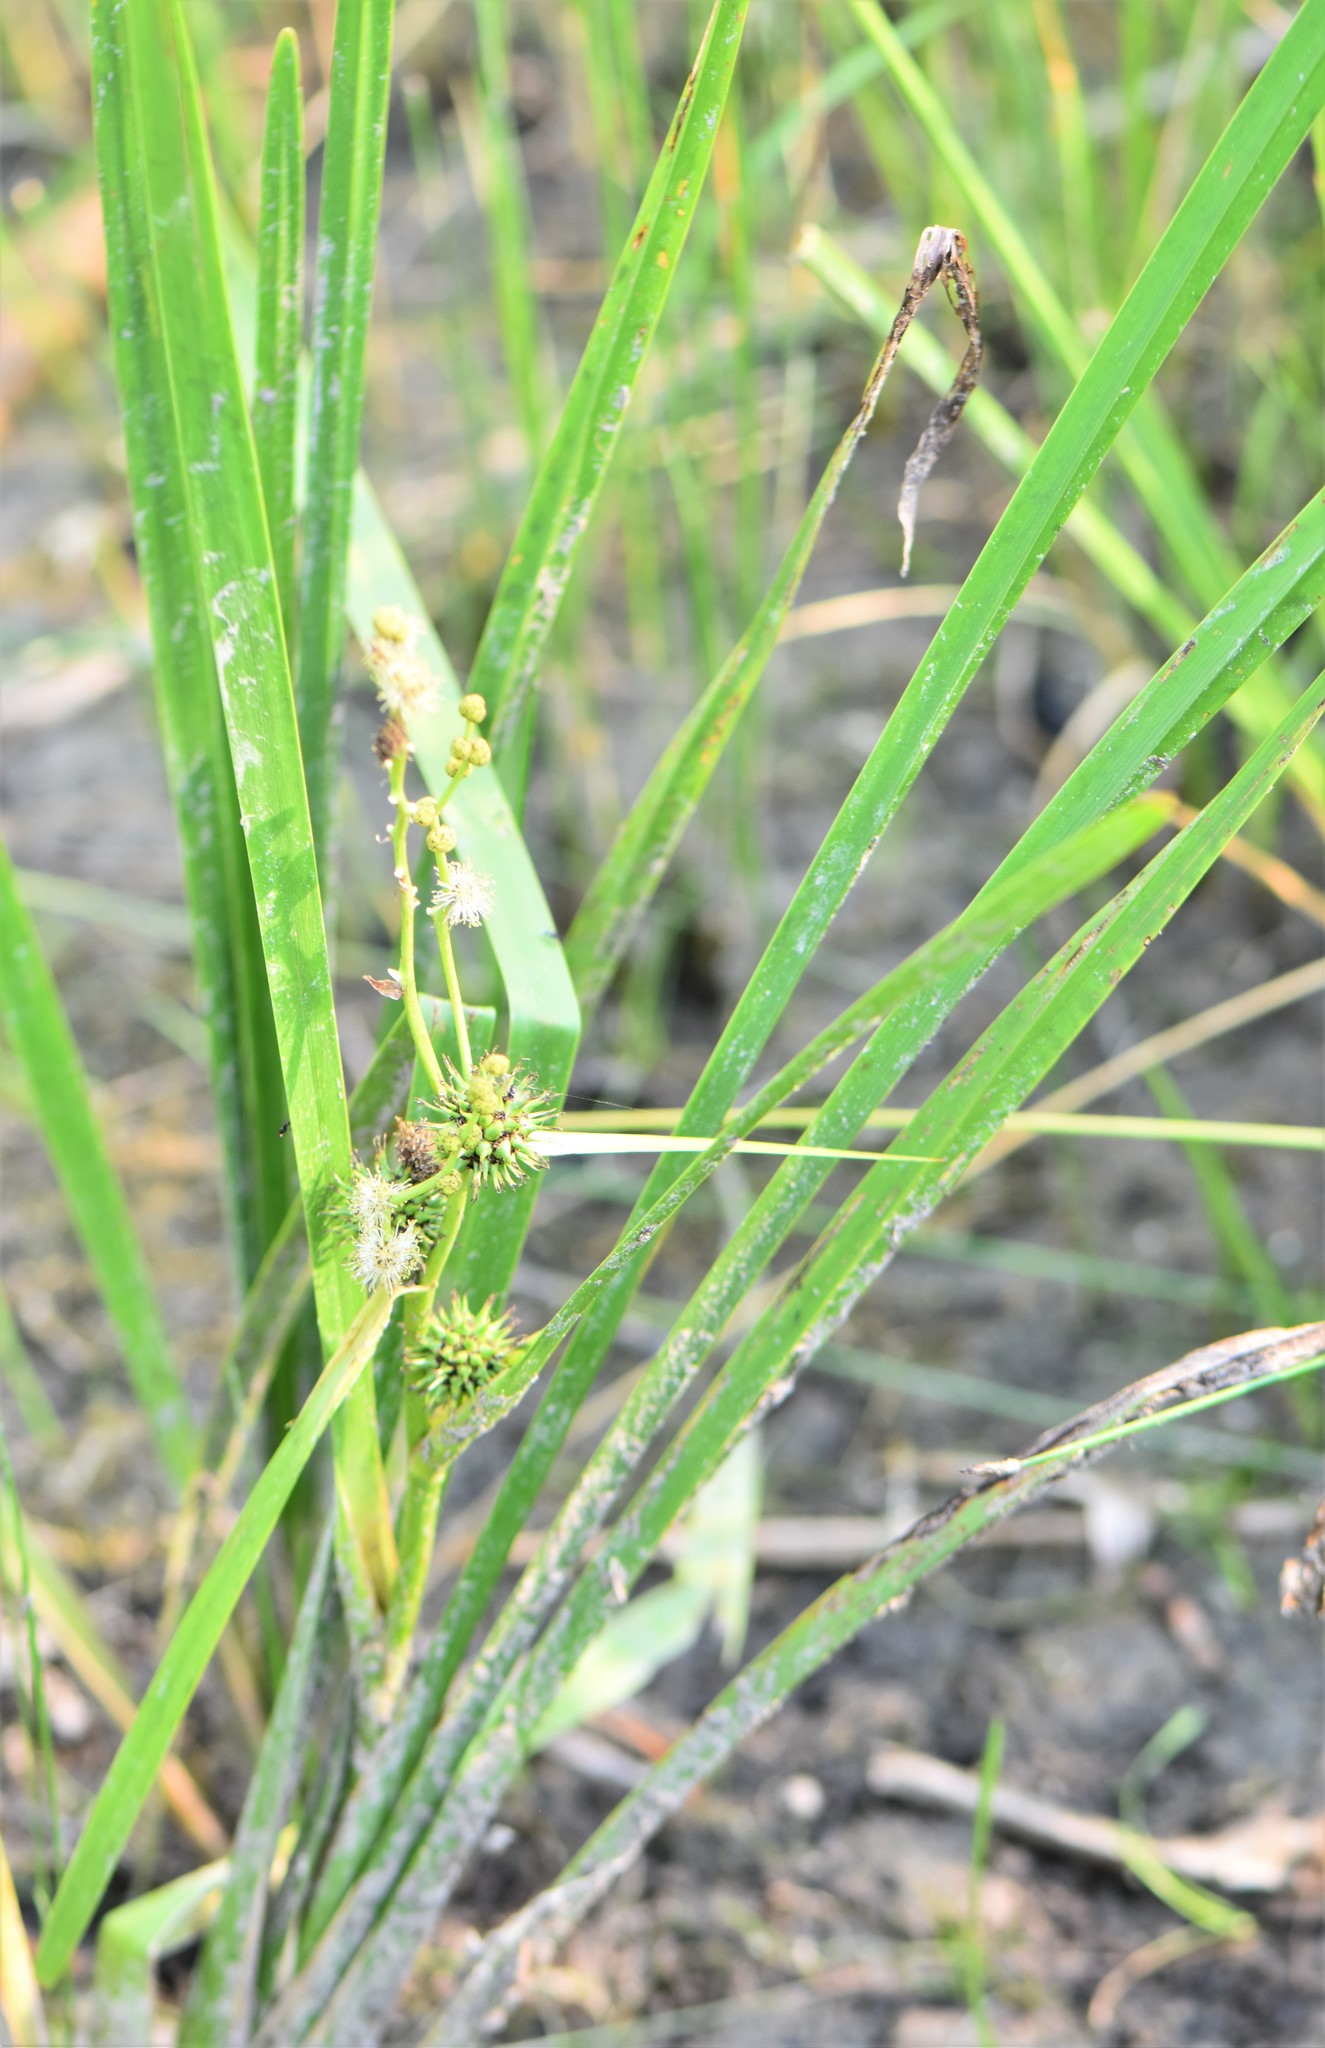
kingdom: Plantae
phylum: Tracheophyta
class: Liliopsida
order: Poales
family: Typhaceae
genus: Sparganium
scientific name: Sparganium eurycarpum
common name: Broad-fruited burreed
